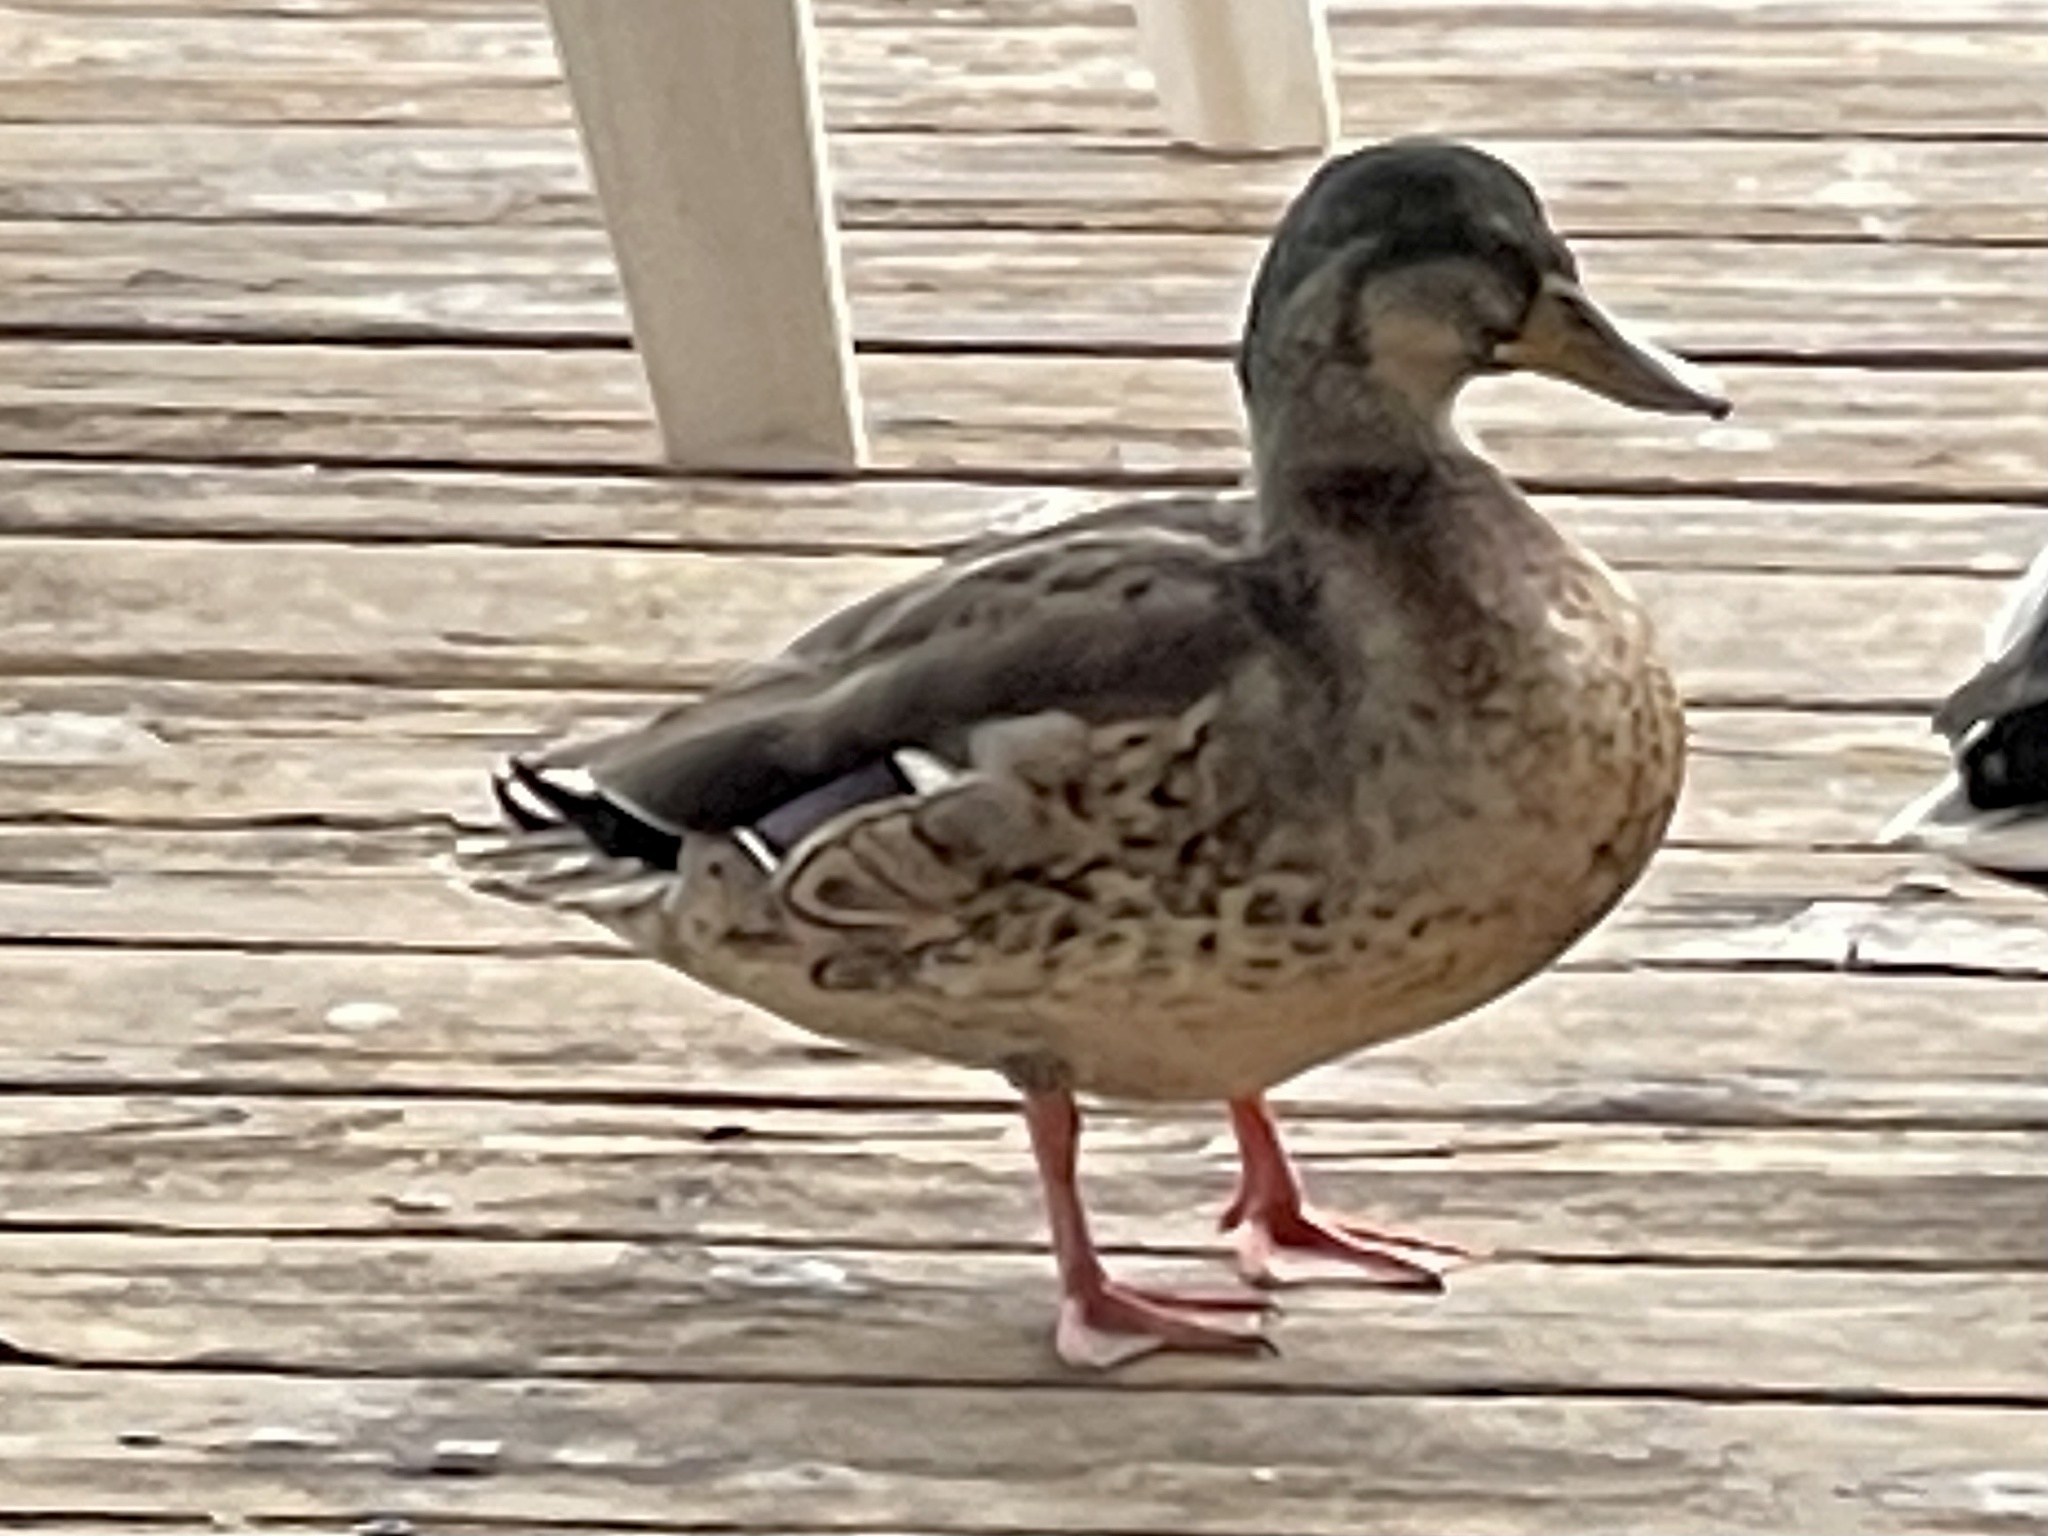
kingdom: Animalia
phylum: Chordata
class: Aves
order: Anseriformes
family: Anatidae
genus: Anas
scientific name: Anas platyrhynchos
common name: Mallard
